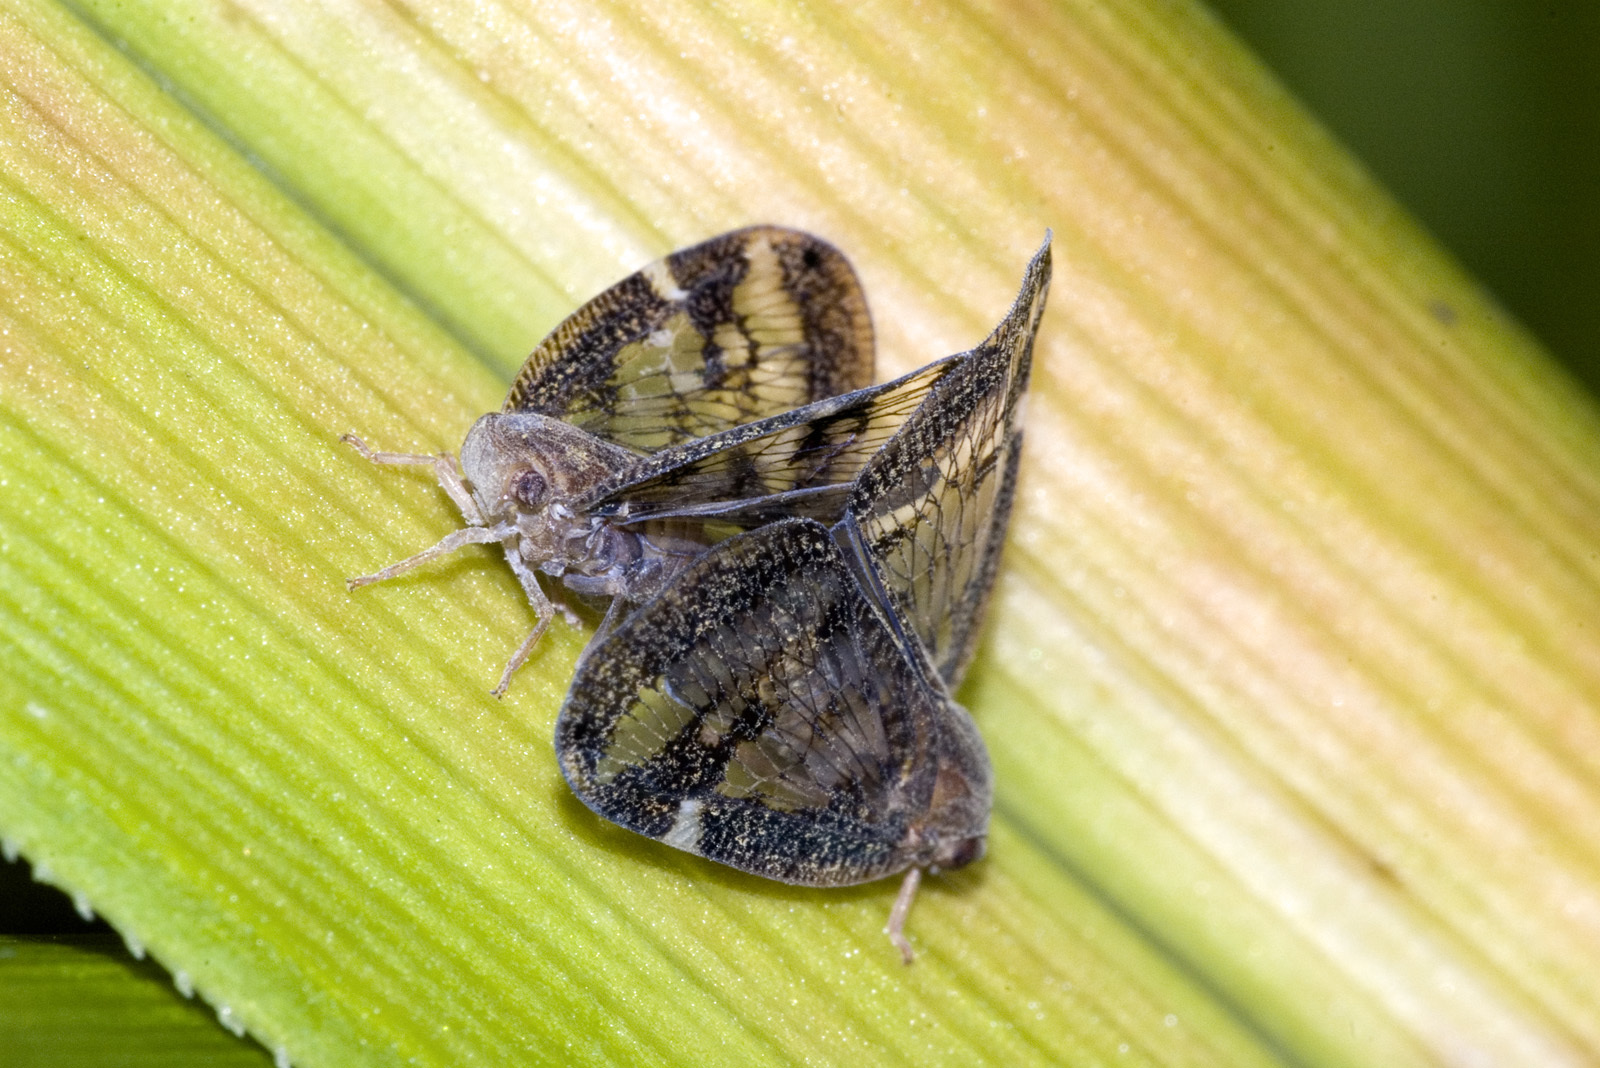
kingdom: Animalia
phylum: Arthropoda
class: Insecta
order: Hemiptera
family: Ricaniidae
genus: Scolypopa
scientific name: Scolypopa australis
